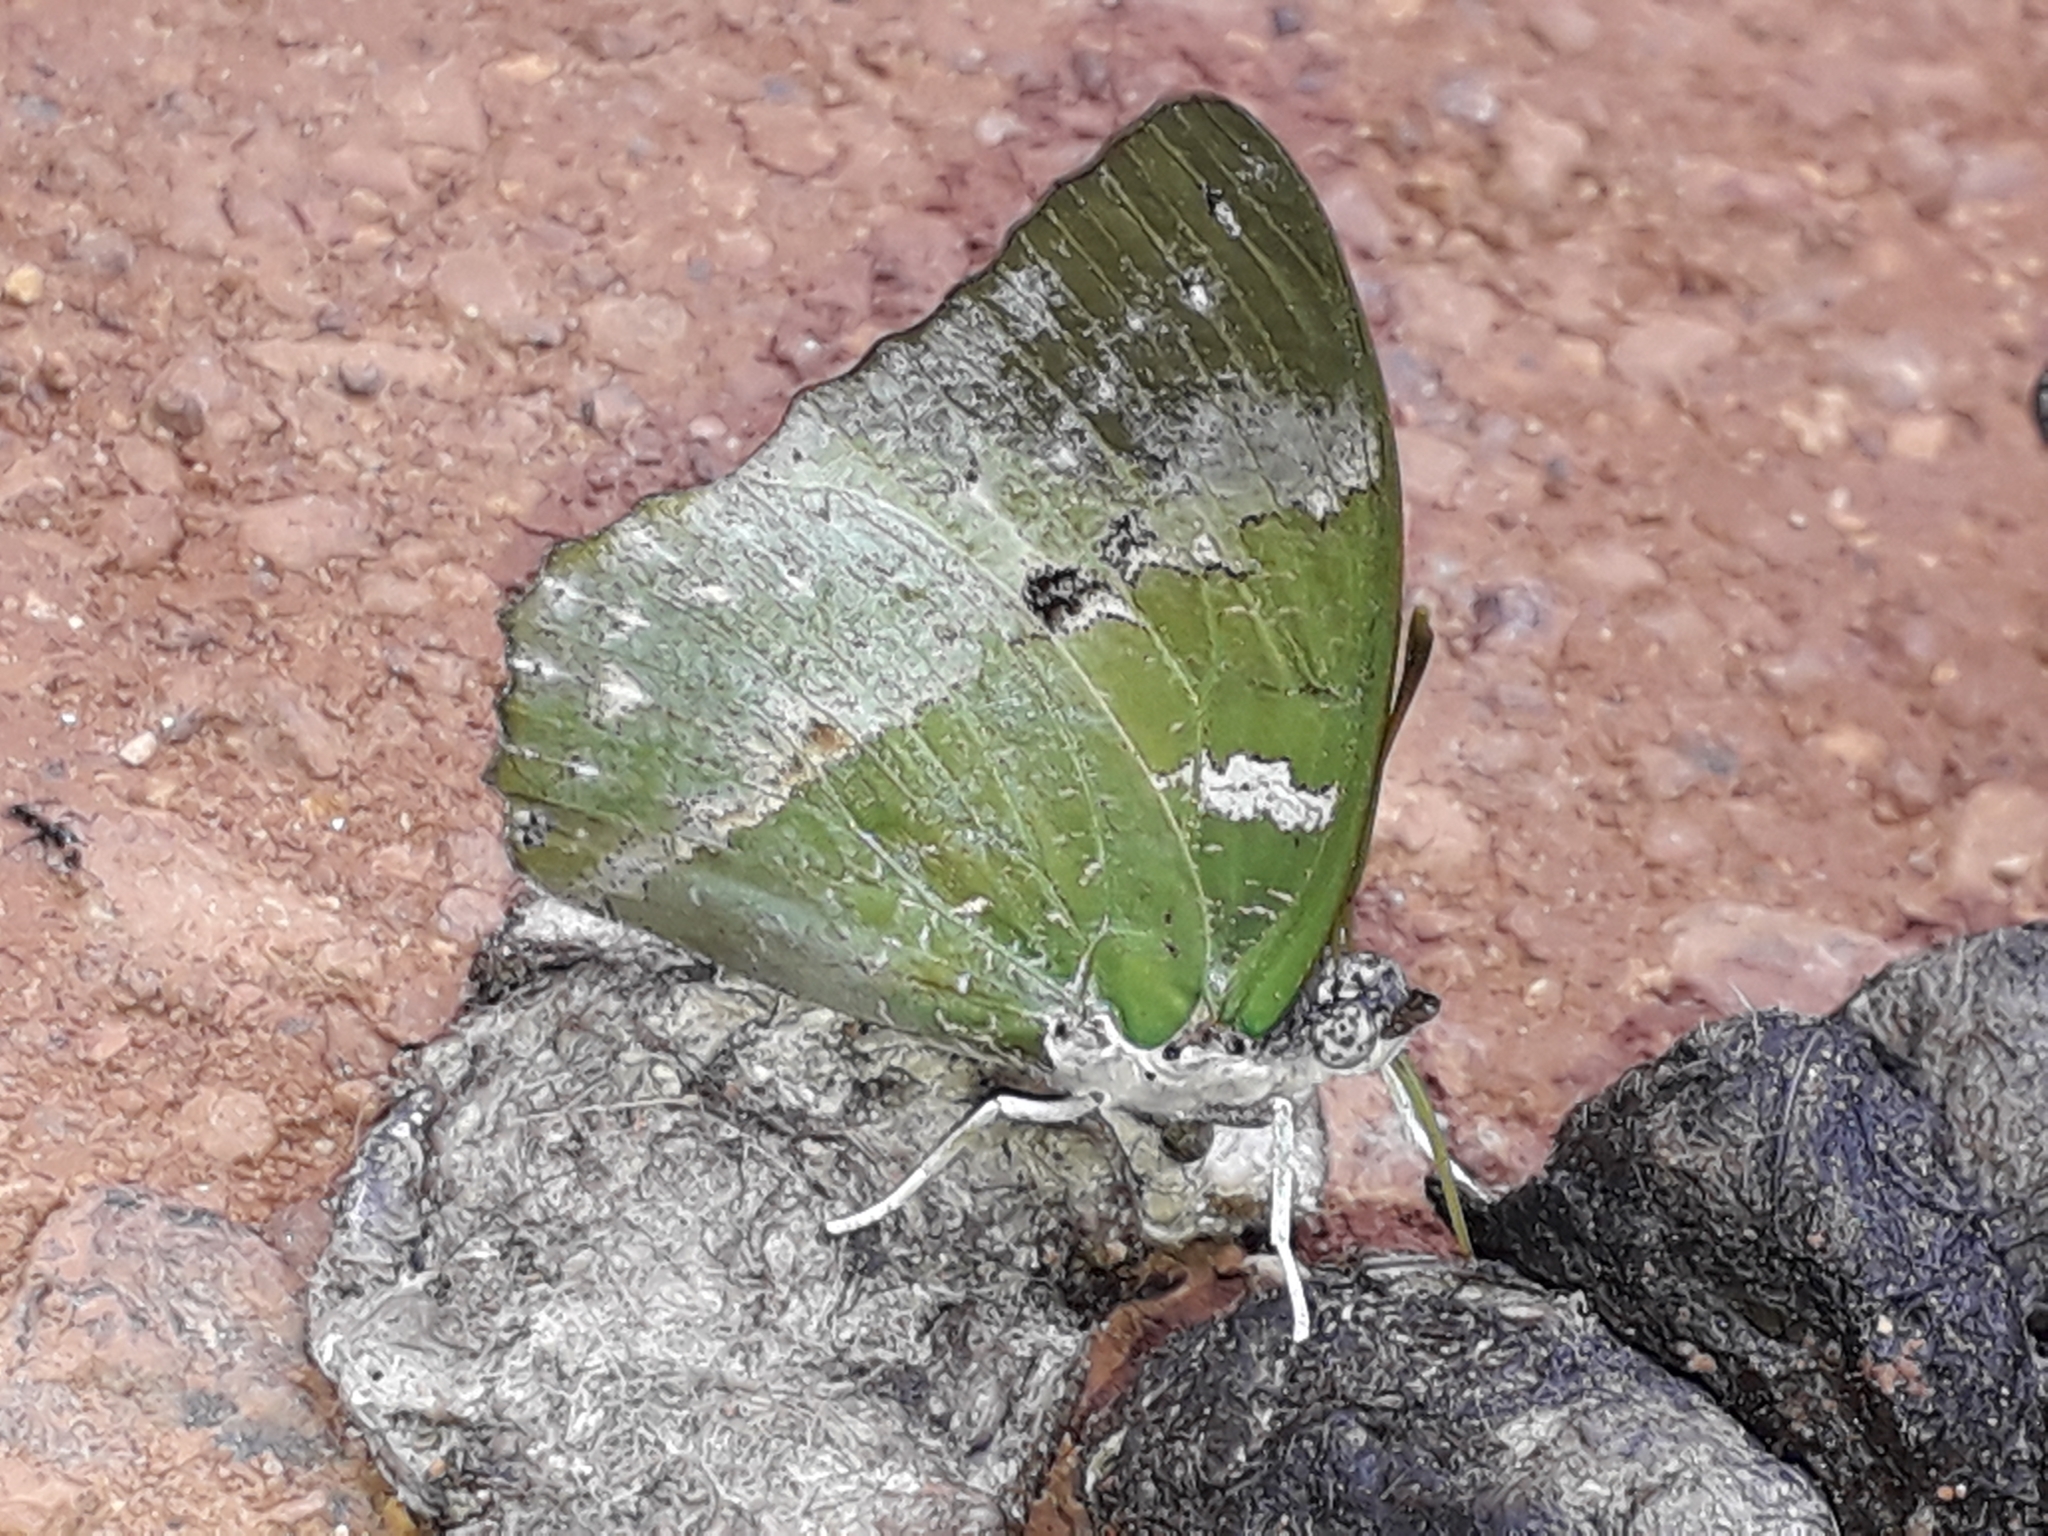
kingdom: Animalia
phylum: Arthropoda
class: Insecta
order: Lepidoptera
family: Nymphalidae
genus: Charaxes
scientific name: Charaxes
